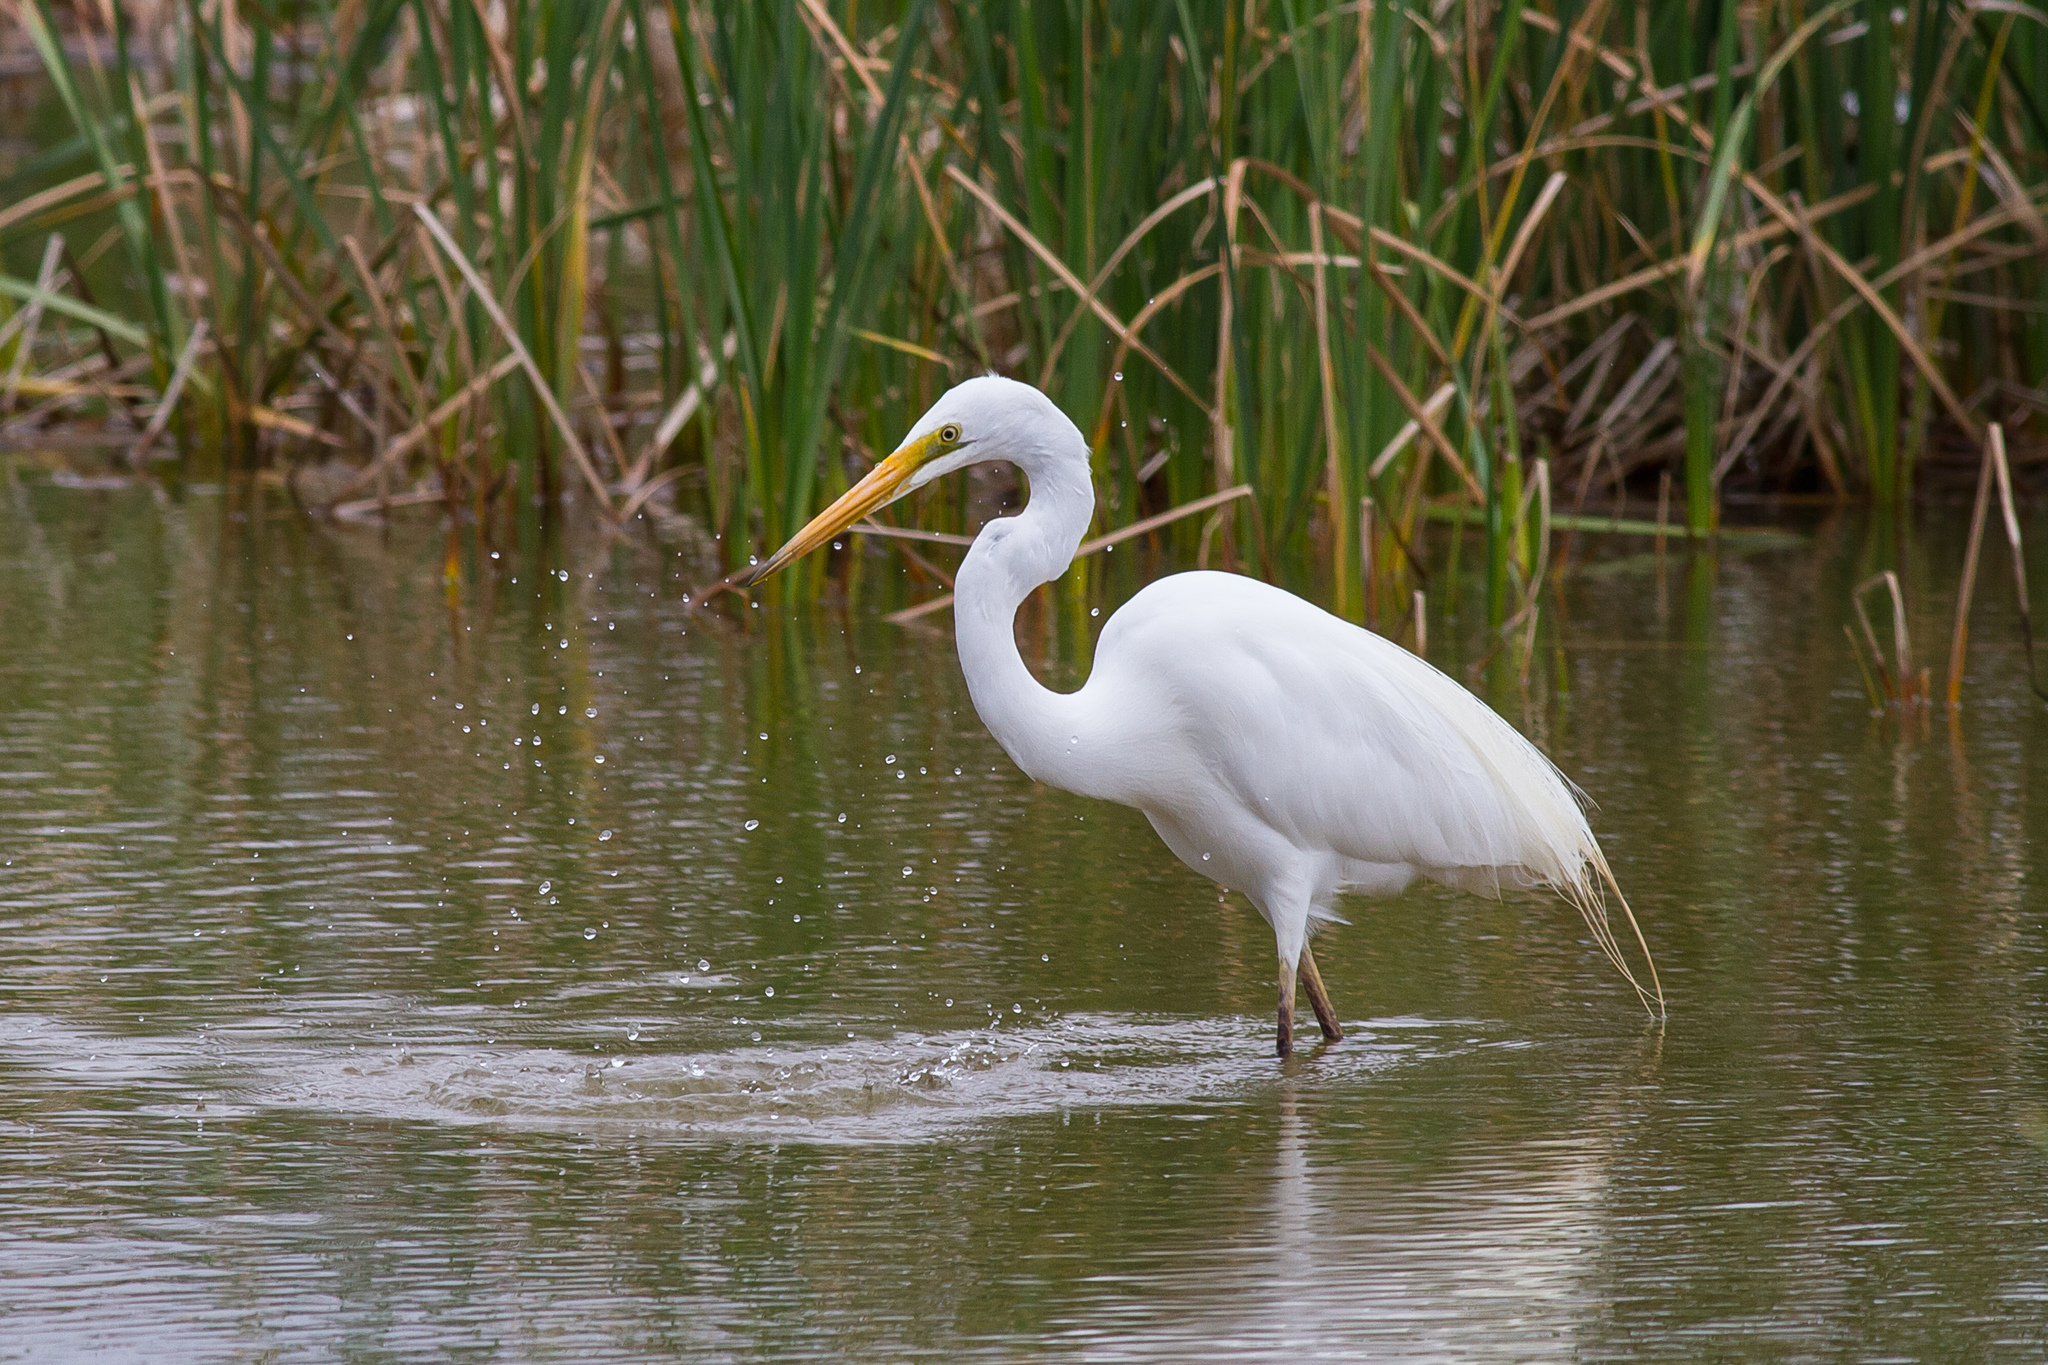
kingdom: Animalia
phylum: Chordata
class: Aves
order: Pelecaniformes
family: Ardeidae
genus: Ardea
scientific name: Ardea alba
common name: Great egret
